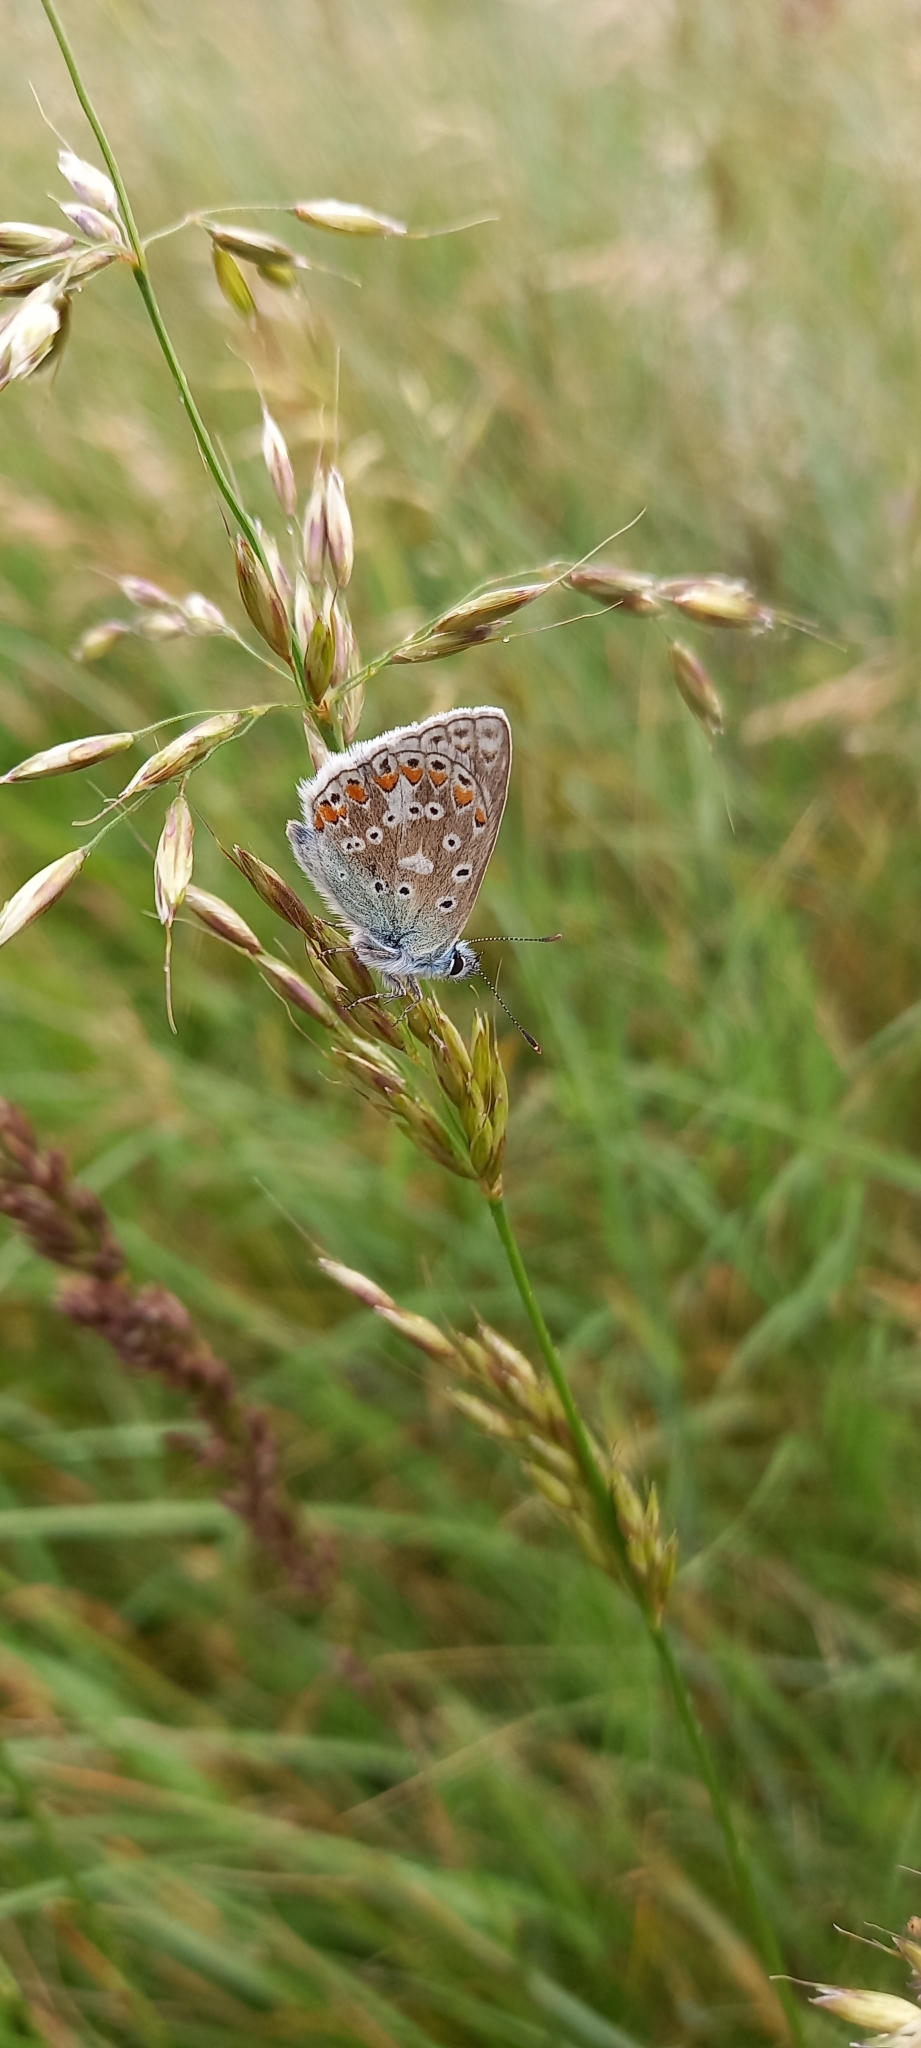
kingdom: Animalia
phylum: Arthropoda
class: Insecta
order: Lepidoptera
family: Lycaenidae
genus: Polyommatus
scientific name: Polyommatus icarus
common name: Common blue
